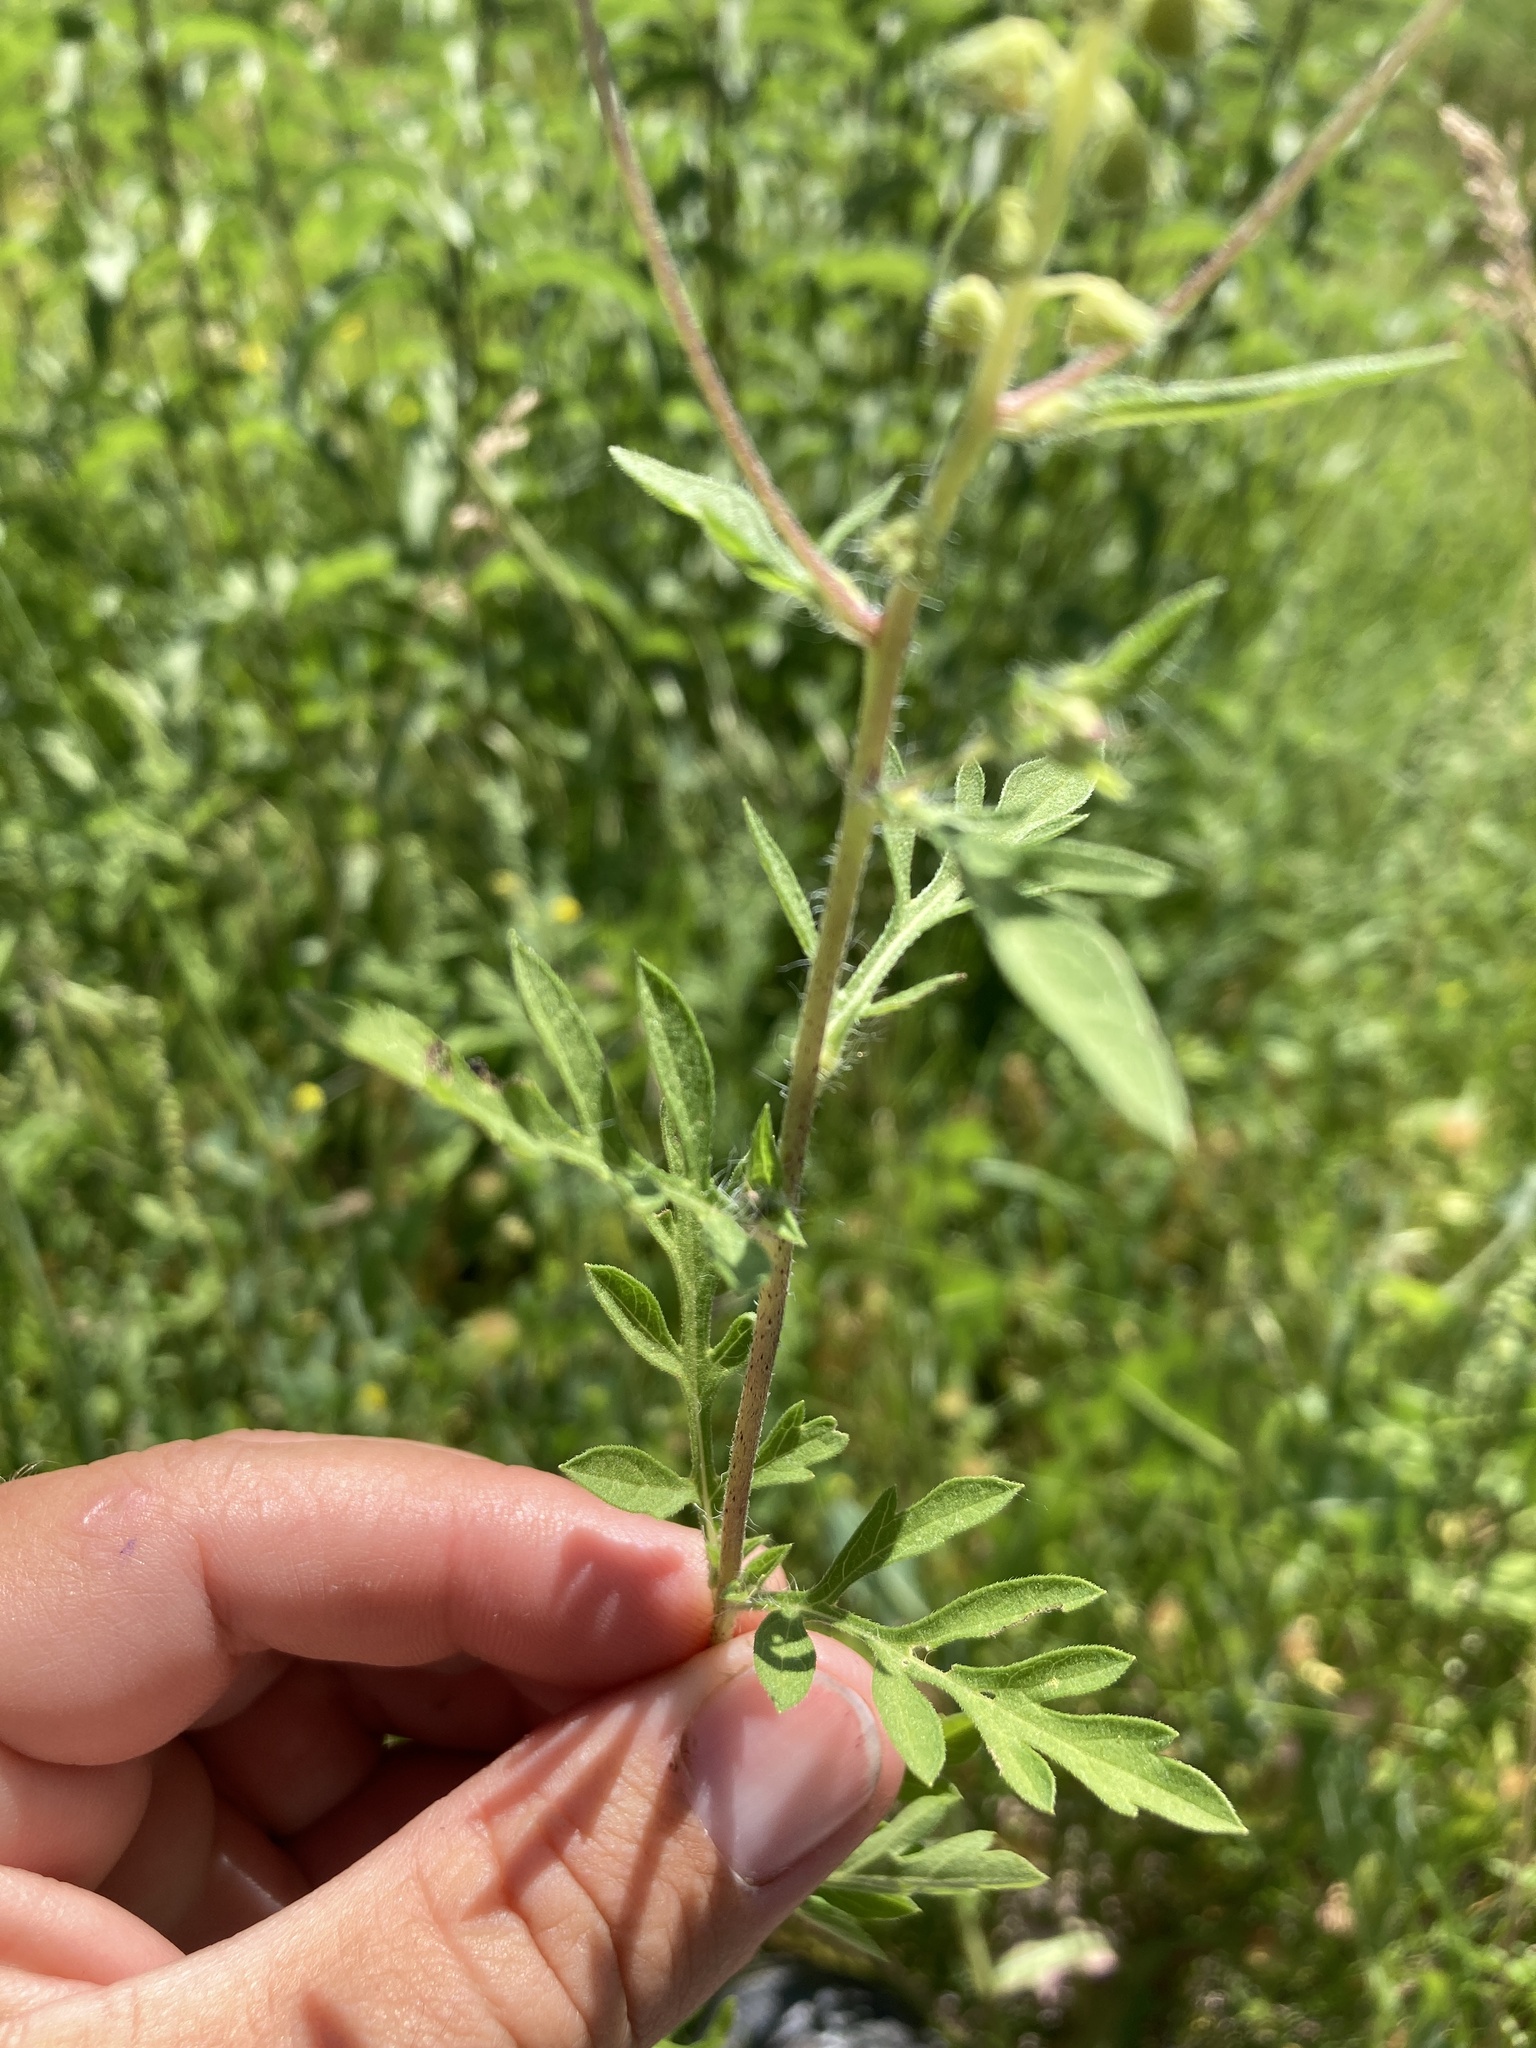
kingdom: Plantae
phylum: Tracheophyta
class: Magnoliopsida
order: Asterales
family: Asteraceae
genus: Ambrosia
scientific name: Ambrosia psilostachya
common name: Perennial ragweed
